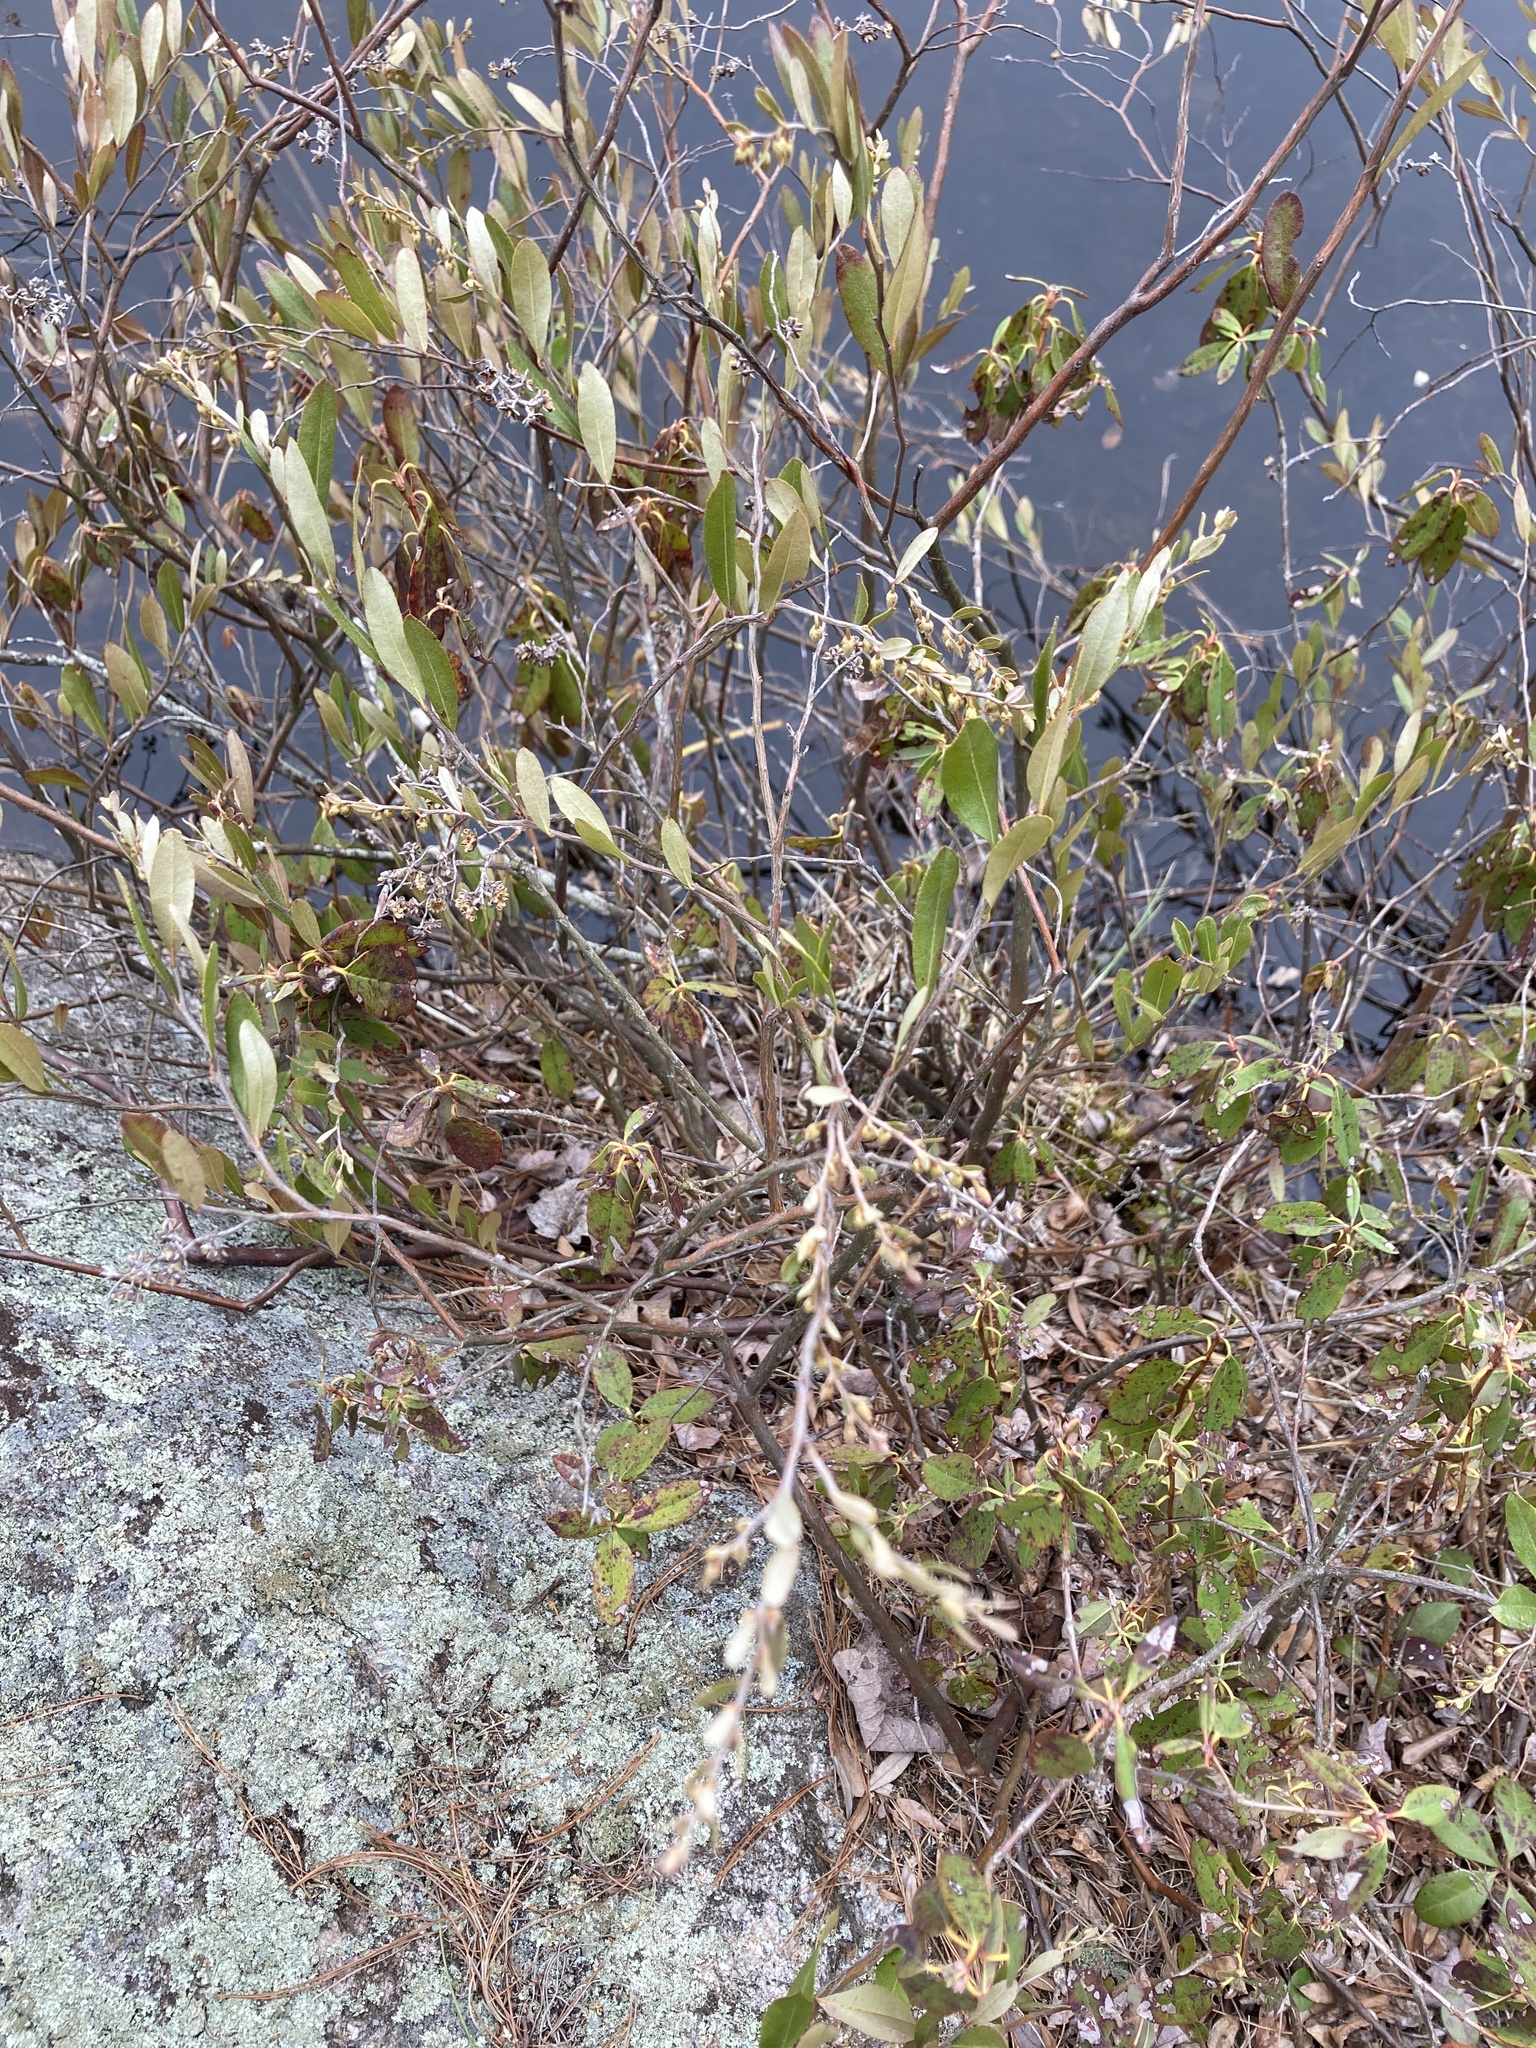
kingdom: Plantae
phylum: Tracheophyta
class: Magnoliopsida
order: Ericales
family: Ericaceae
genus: Chamaedaphne
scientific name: Chamaedaphne calyculata
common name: Leatherleaf
